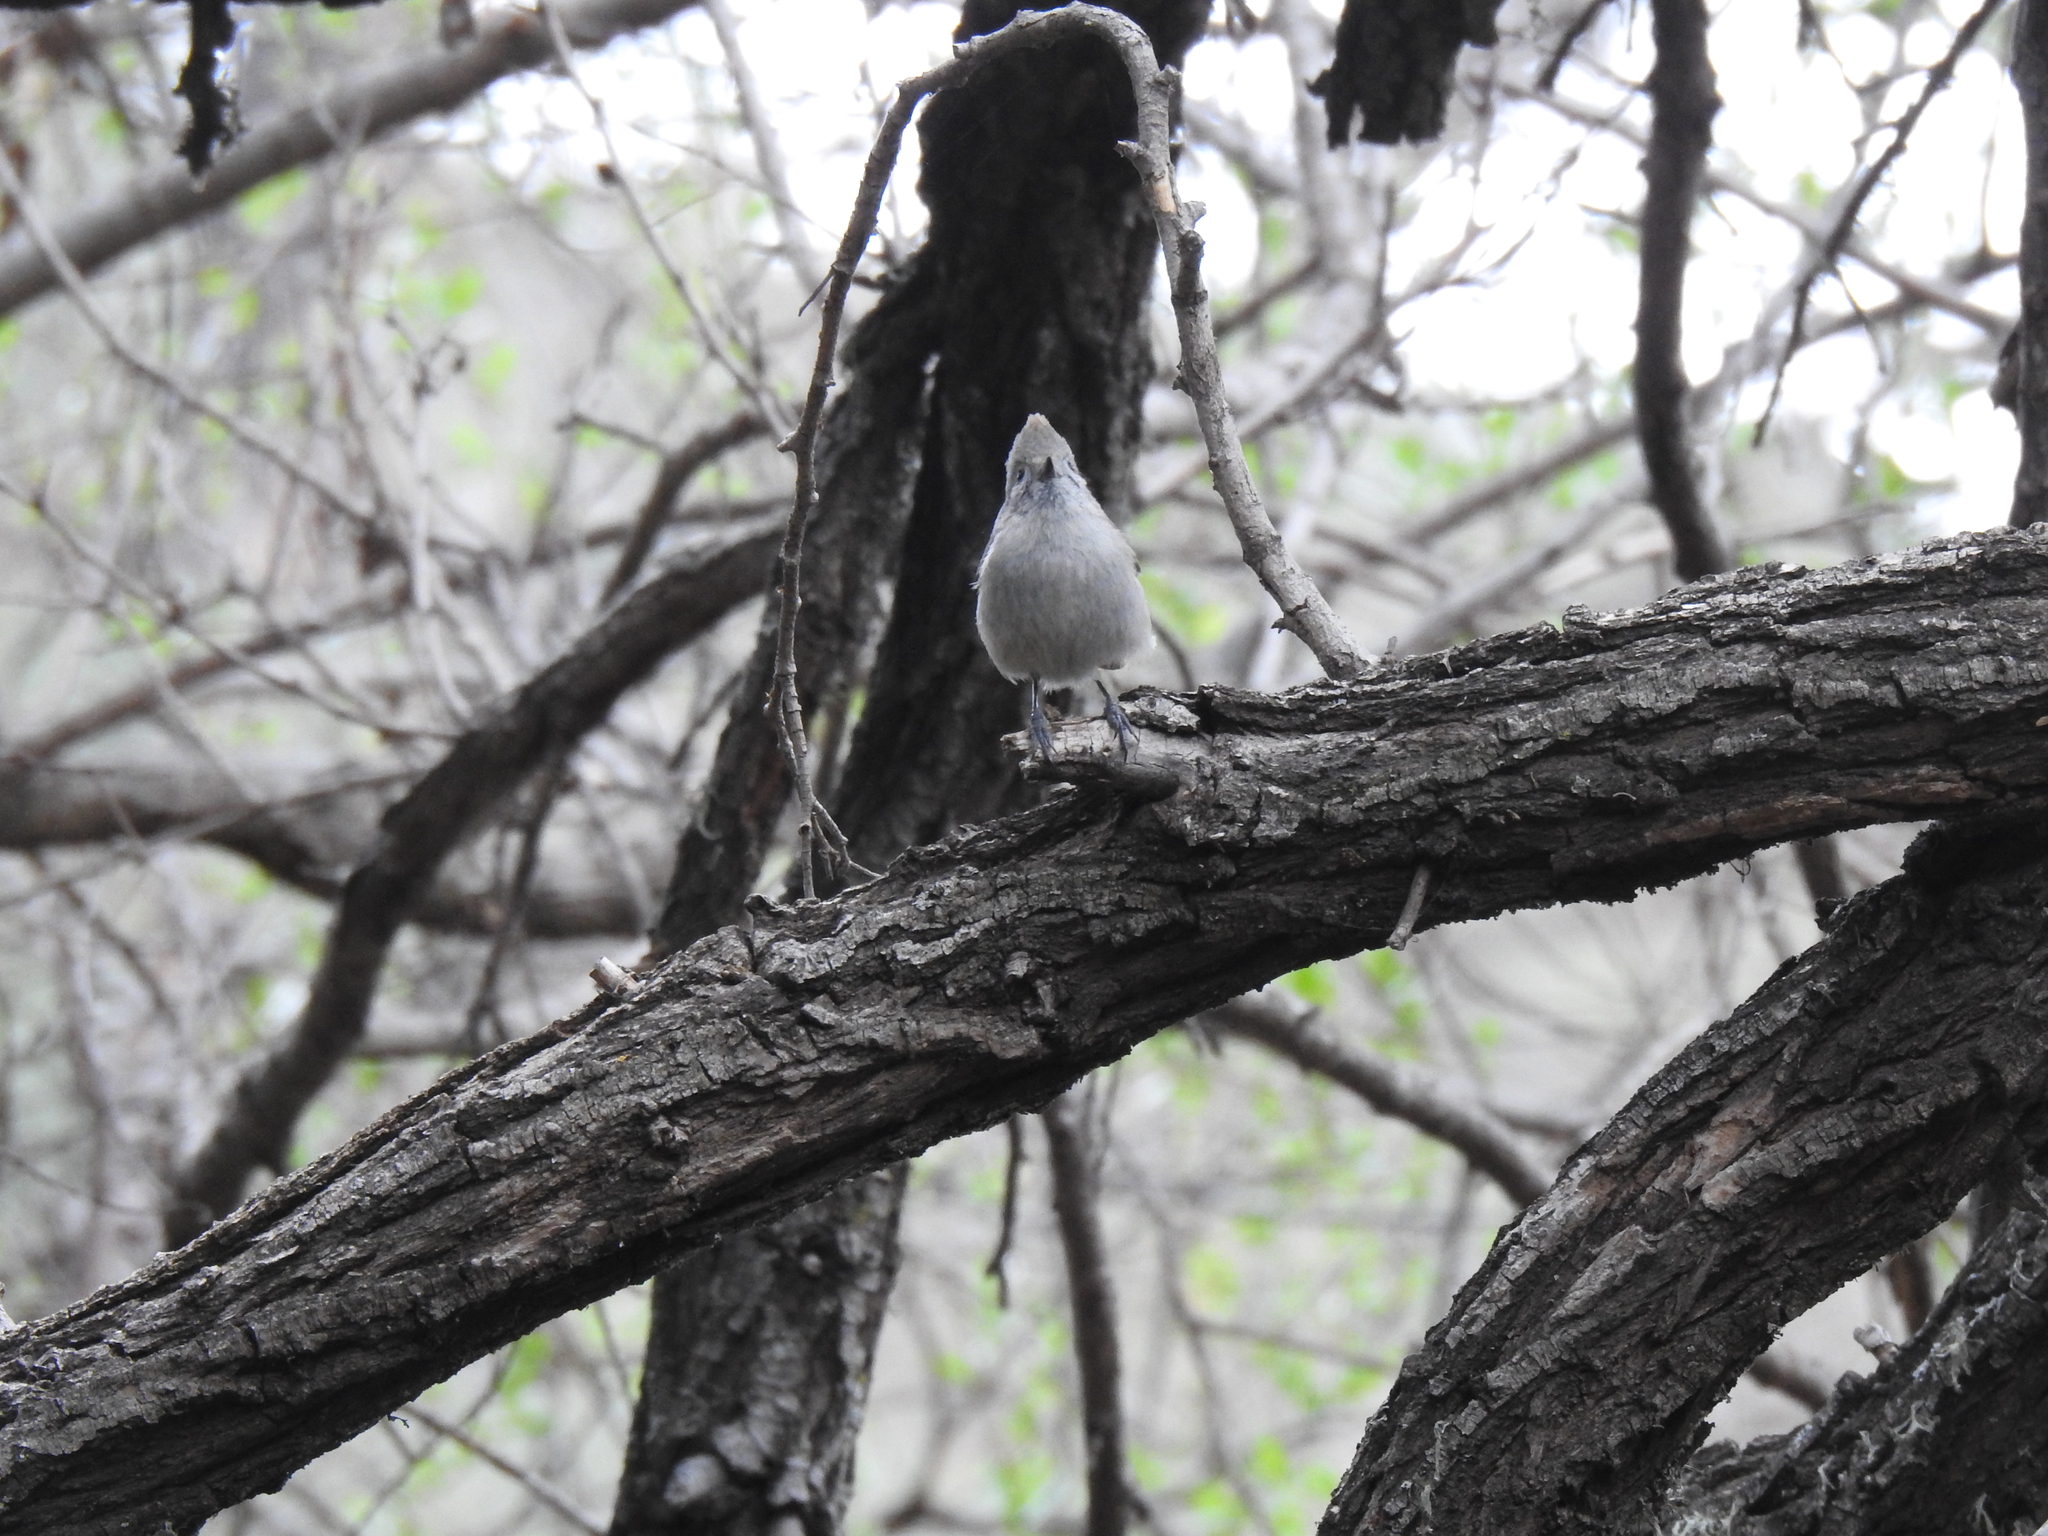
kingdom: Animalia
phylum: Chordata
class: Aves
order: Passeriformes
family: Paridae
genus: Baeolophus
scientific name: Baeolophus inornatus
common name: Oak titmouse
